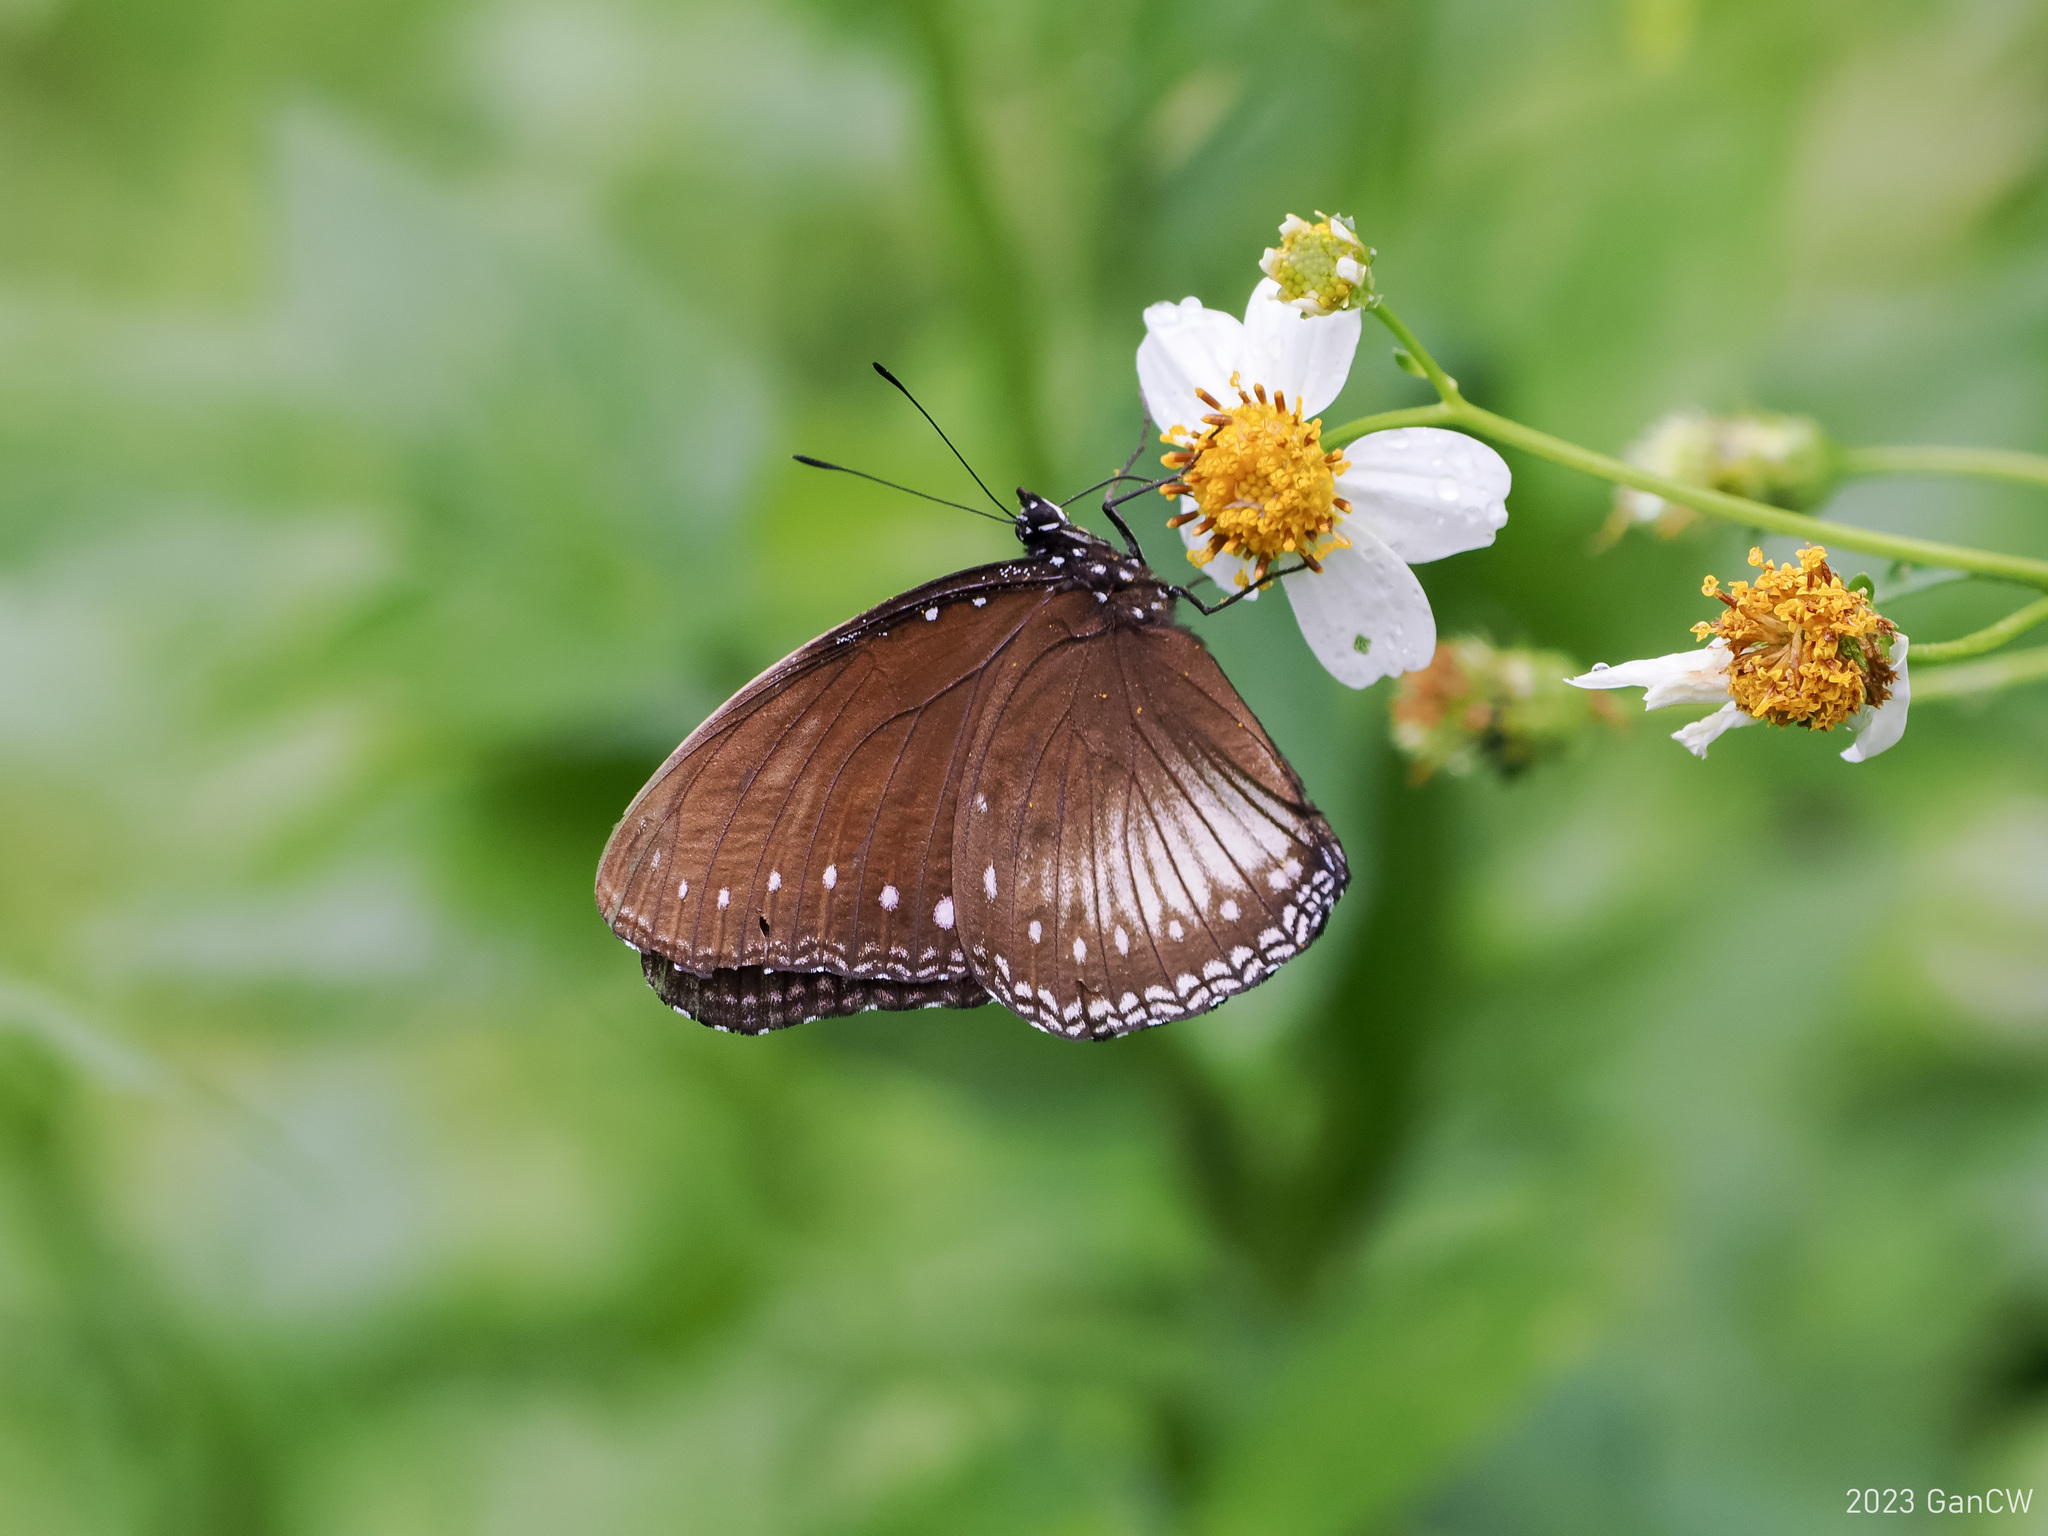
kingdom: Animalia
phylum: Arthropoda
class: Insecta
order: Lepidoptera
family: Nymphalidae
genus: Hypolimnas
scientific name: Hypolimnas anomala
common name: Malayan eggfly
